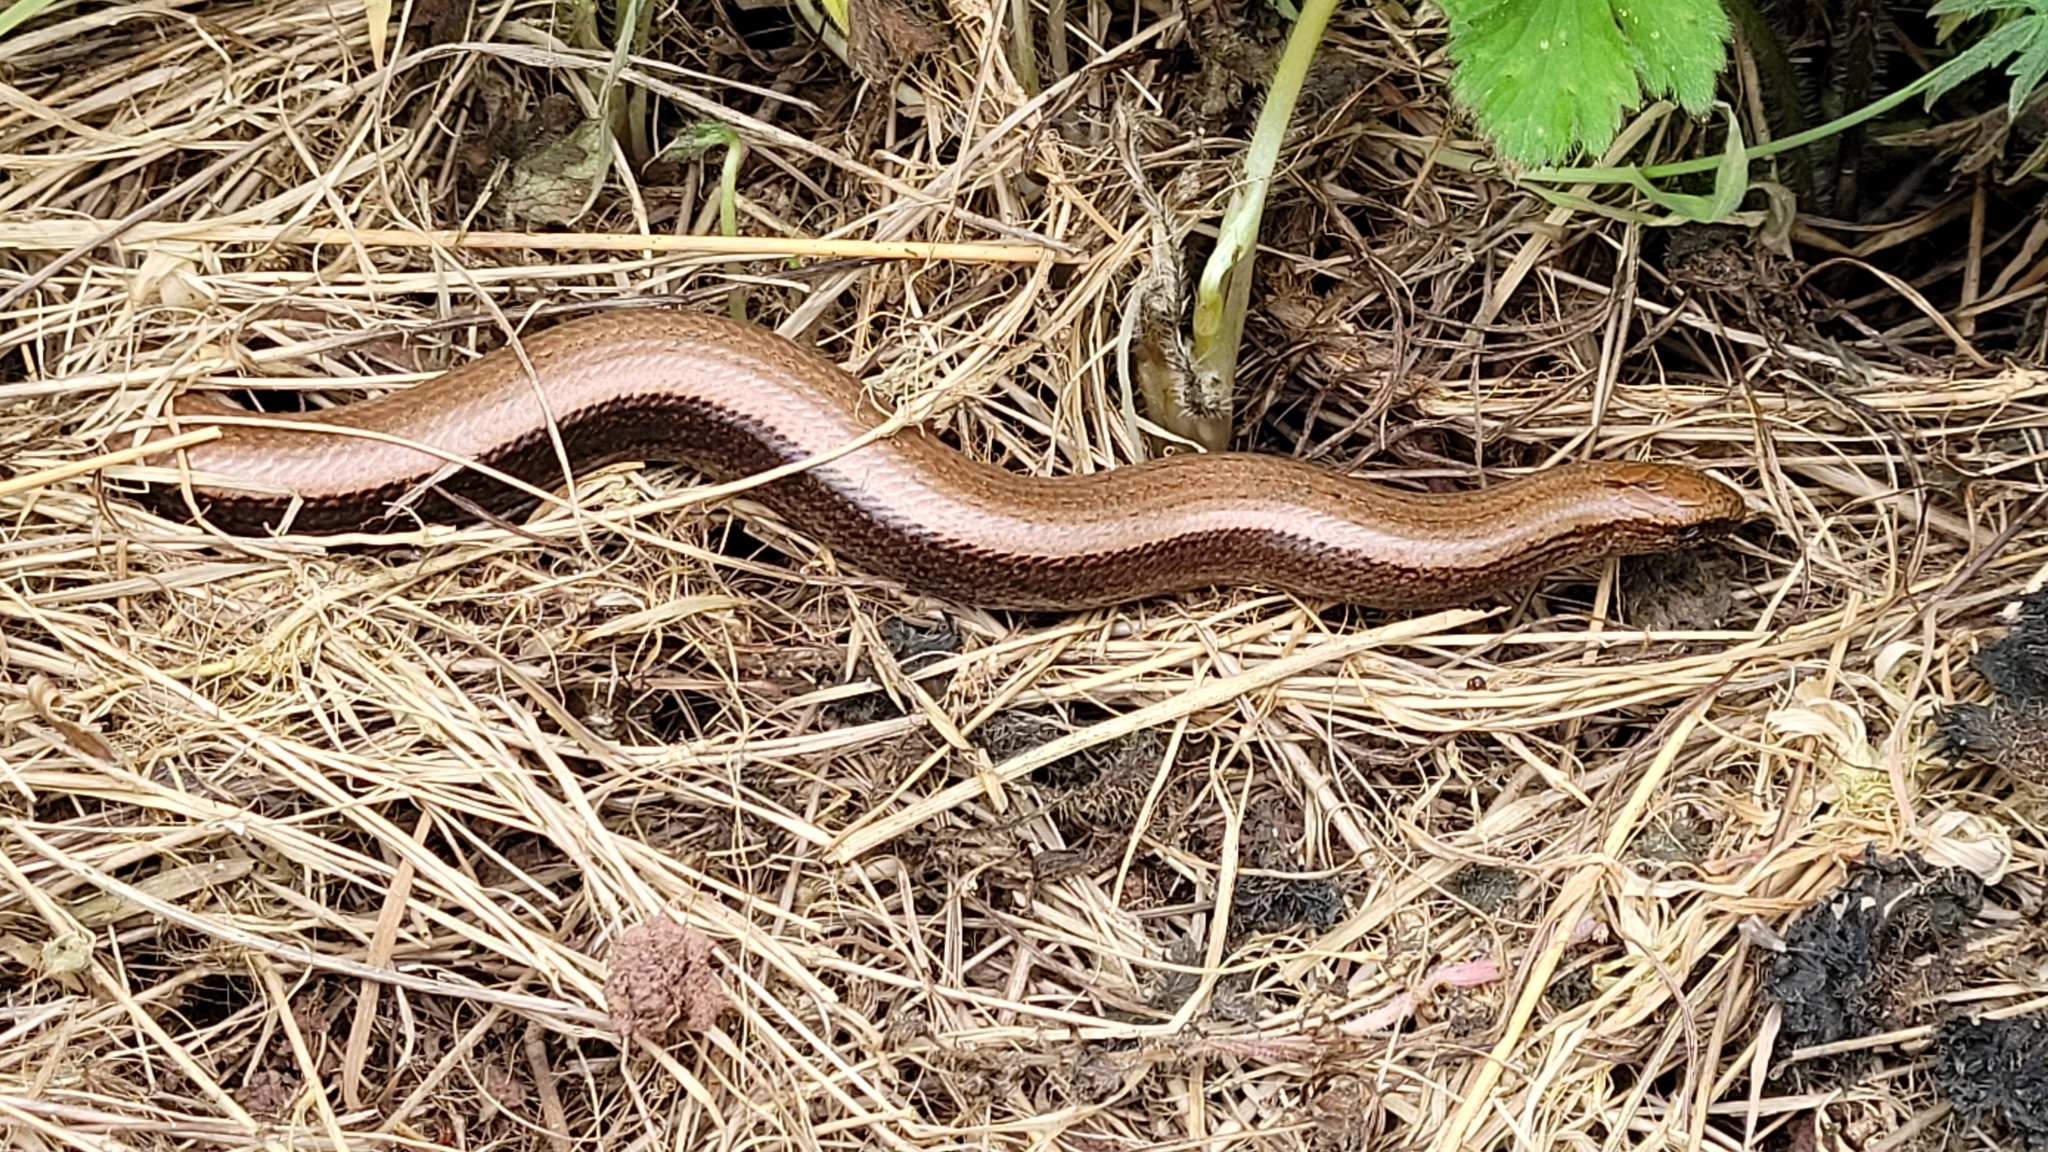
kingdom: Animalia
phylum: Chordata
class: Squamata
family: Anguidae
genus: Anguis
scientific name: Anguis fragilis
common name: Slow worm
